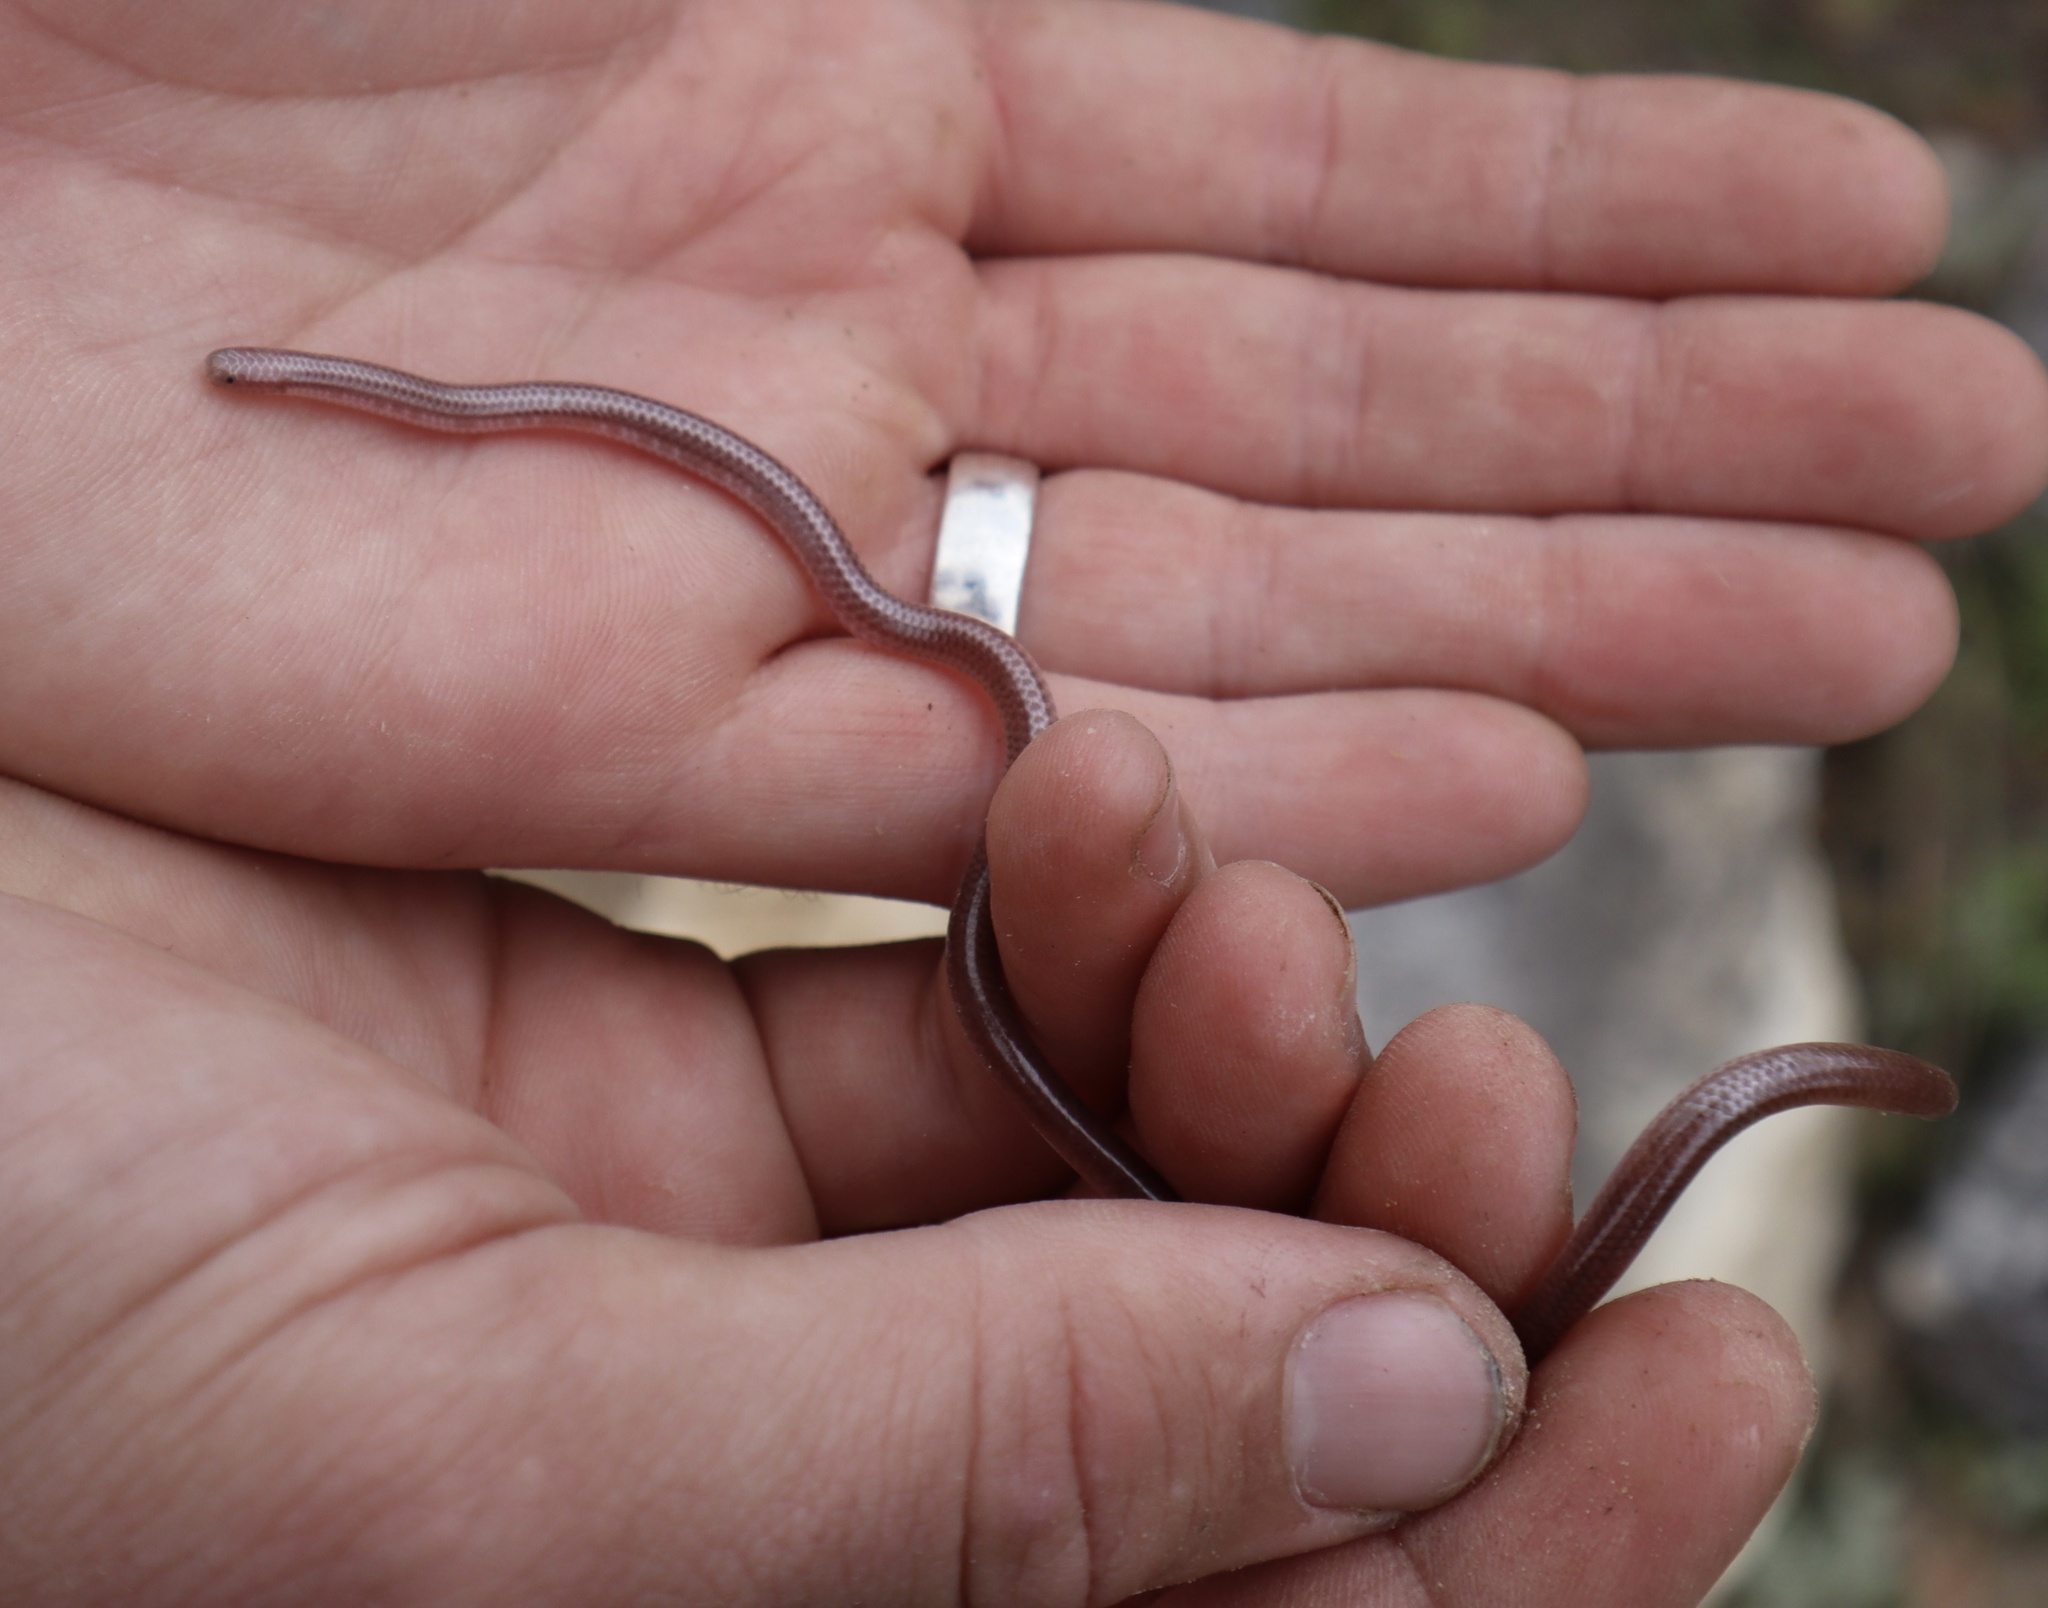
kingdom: Animalia
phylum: Chordata
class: Squamata
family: Leptotyphlopidae
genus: Rena
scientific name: Rena dulcis
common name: Texas blind snake
